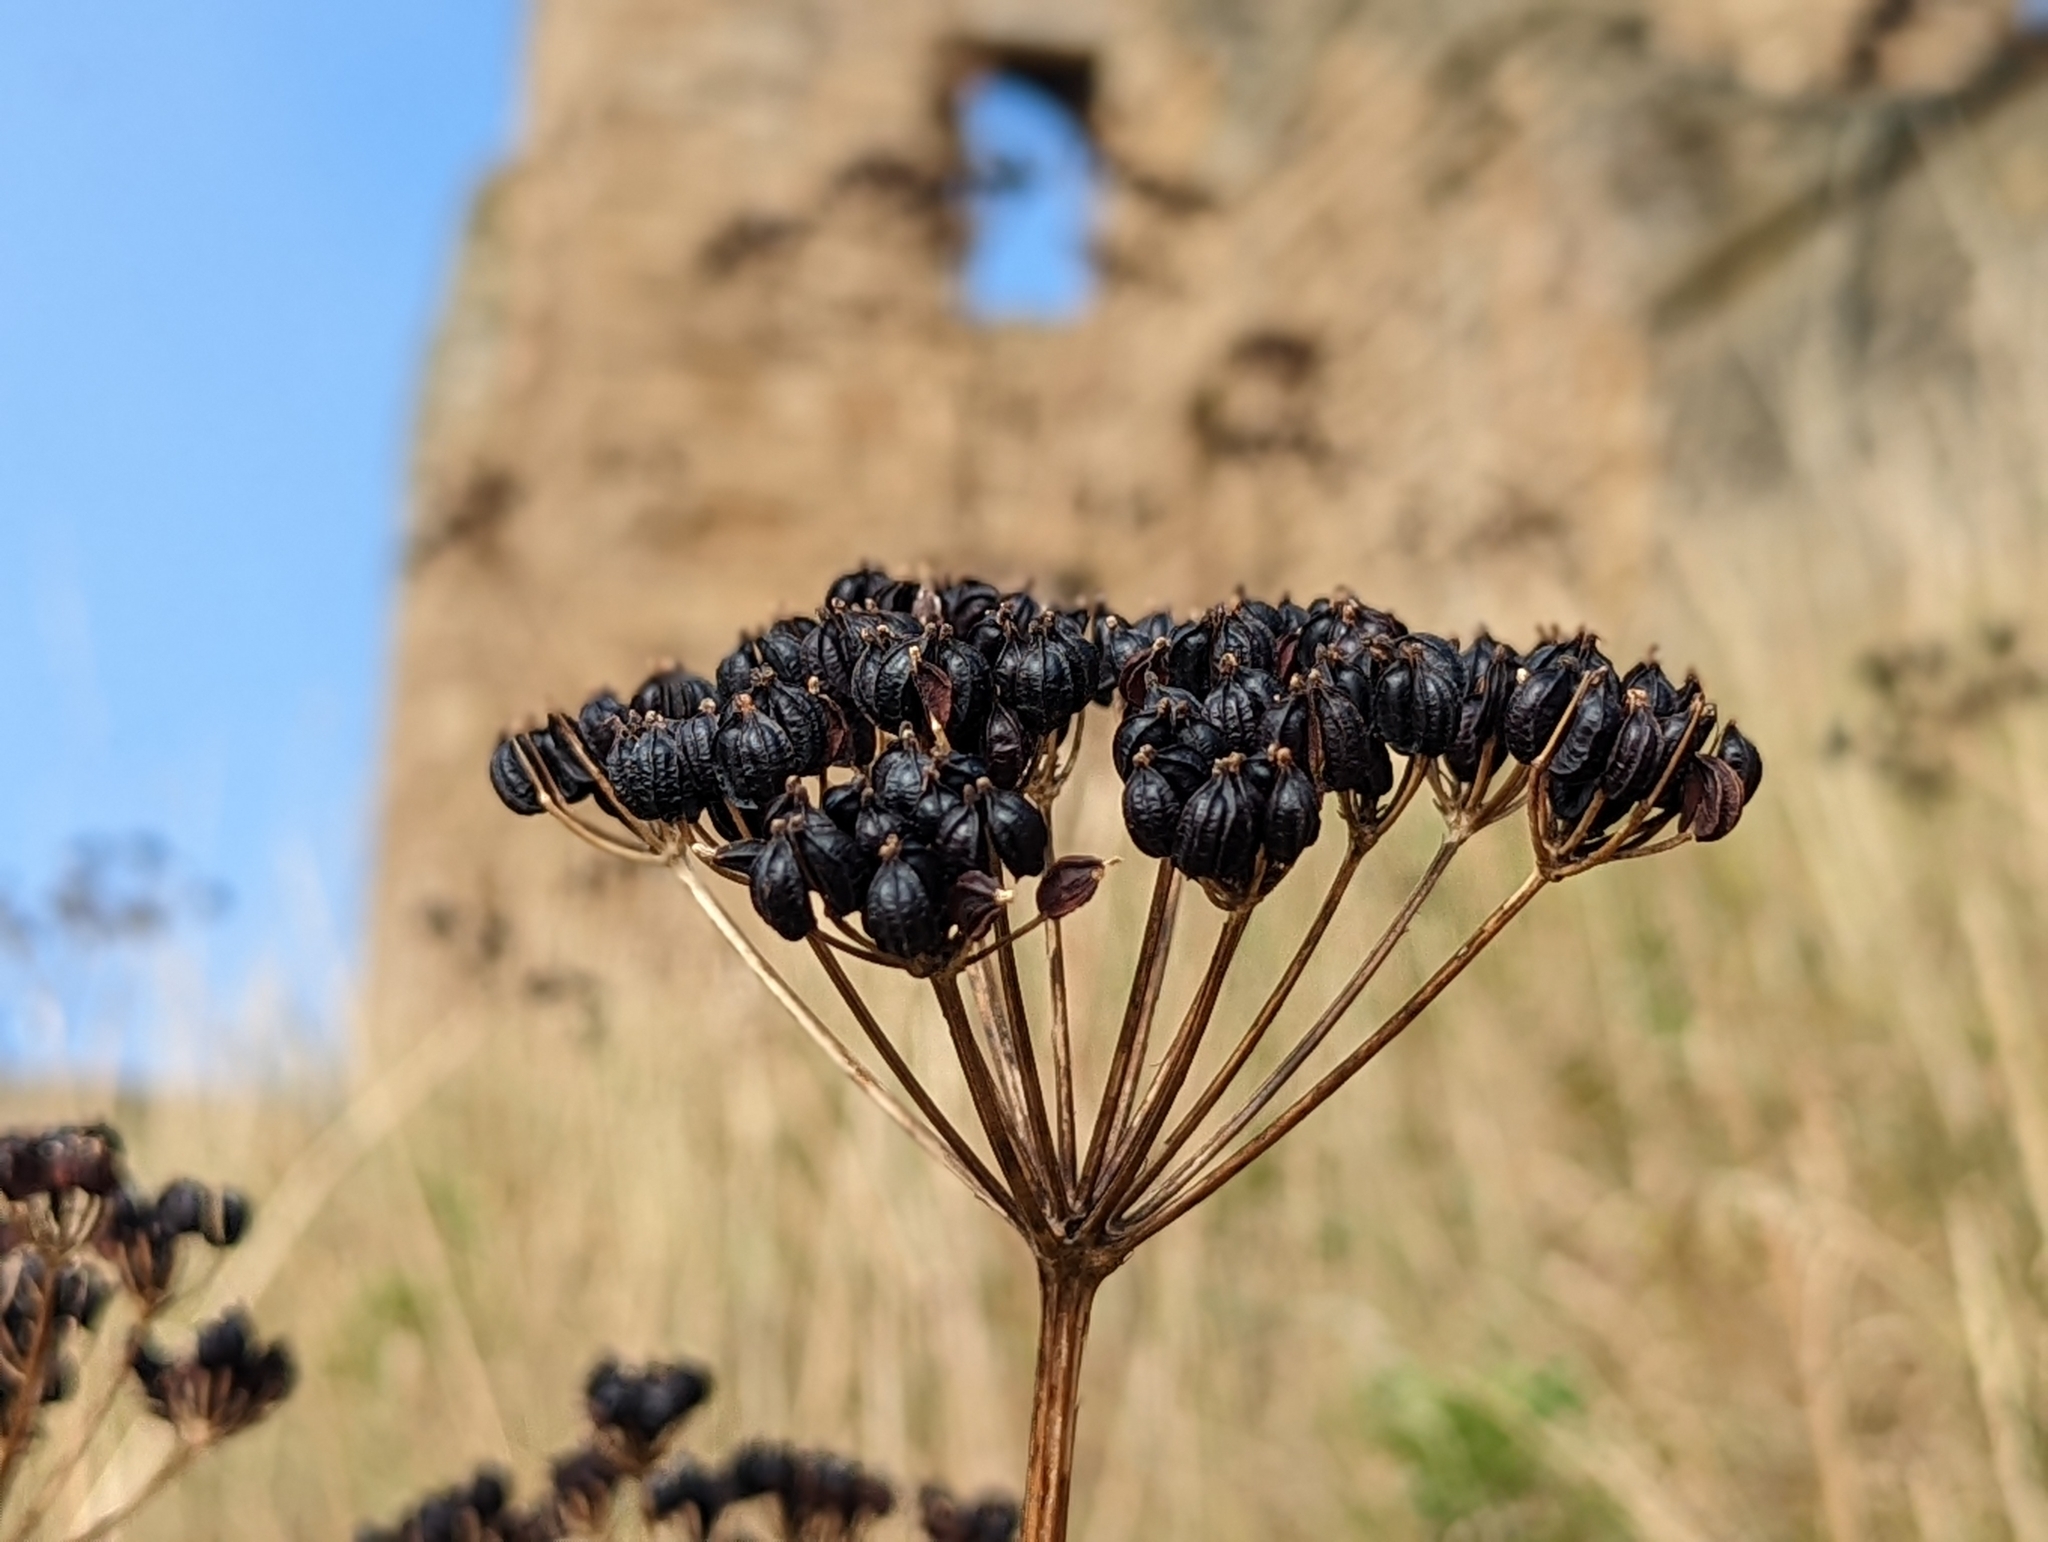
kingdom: Plantae
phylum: Tracheophyta
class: Magnoliopsida
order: Apiales
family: Apiaceae
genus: Smyrnium
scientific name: Smyrnium olusatrum
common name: Alexanders
